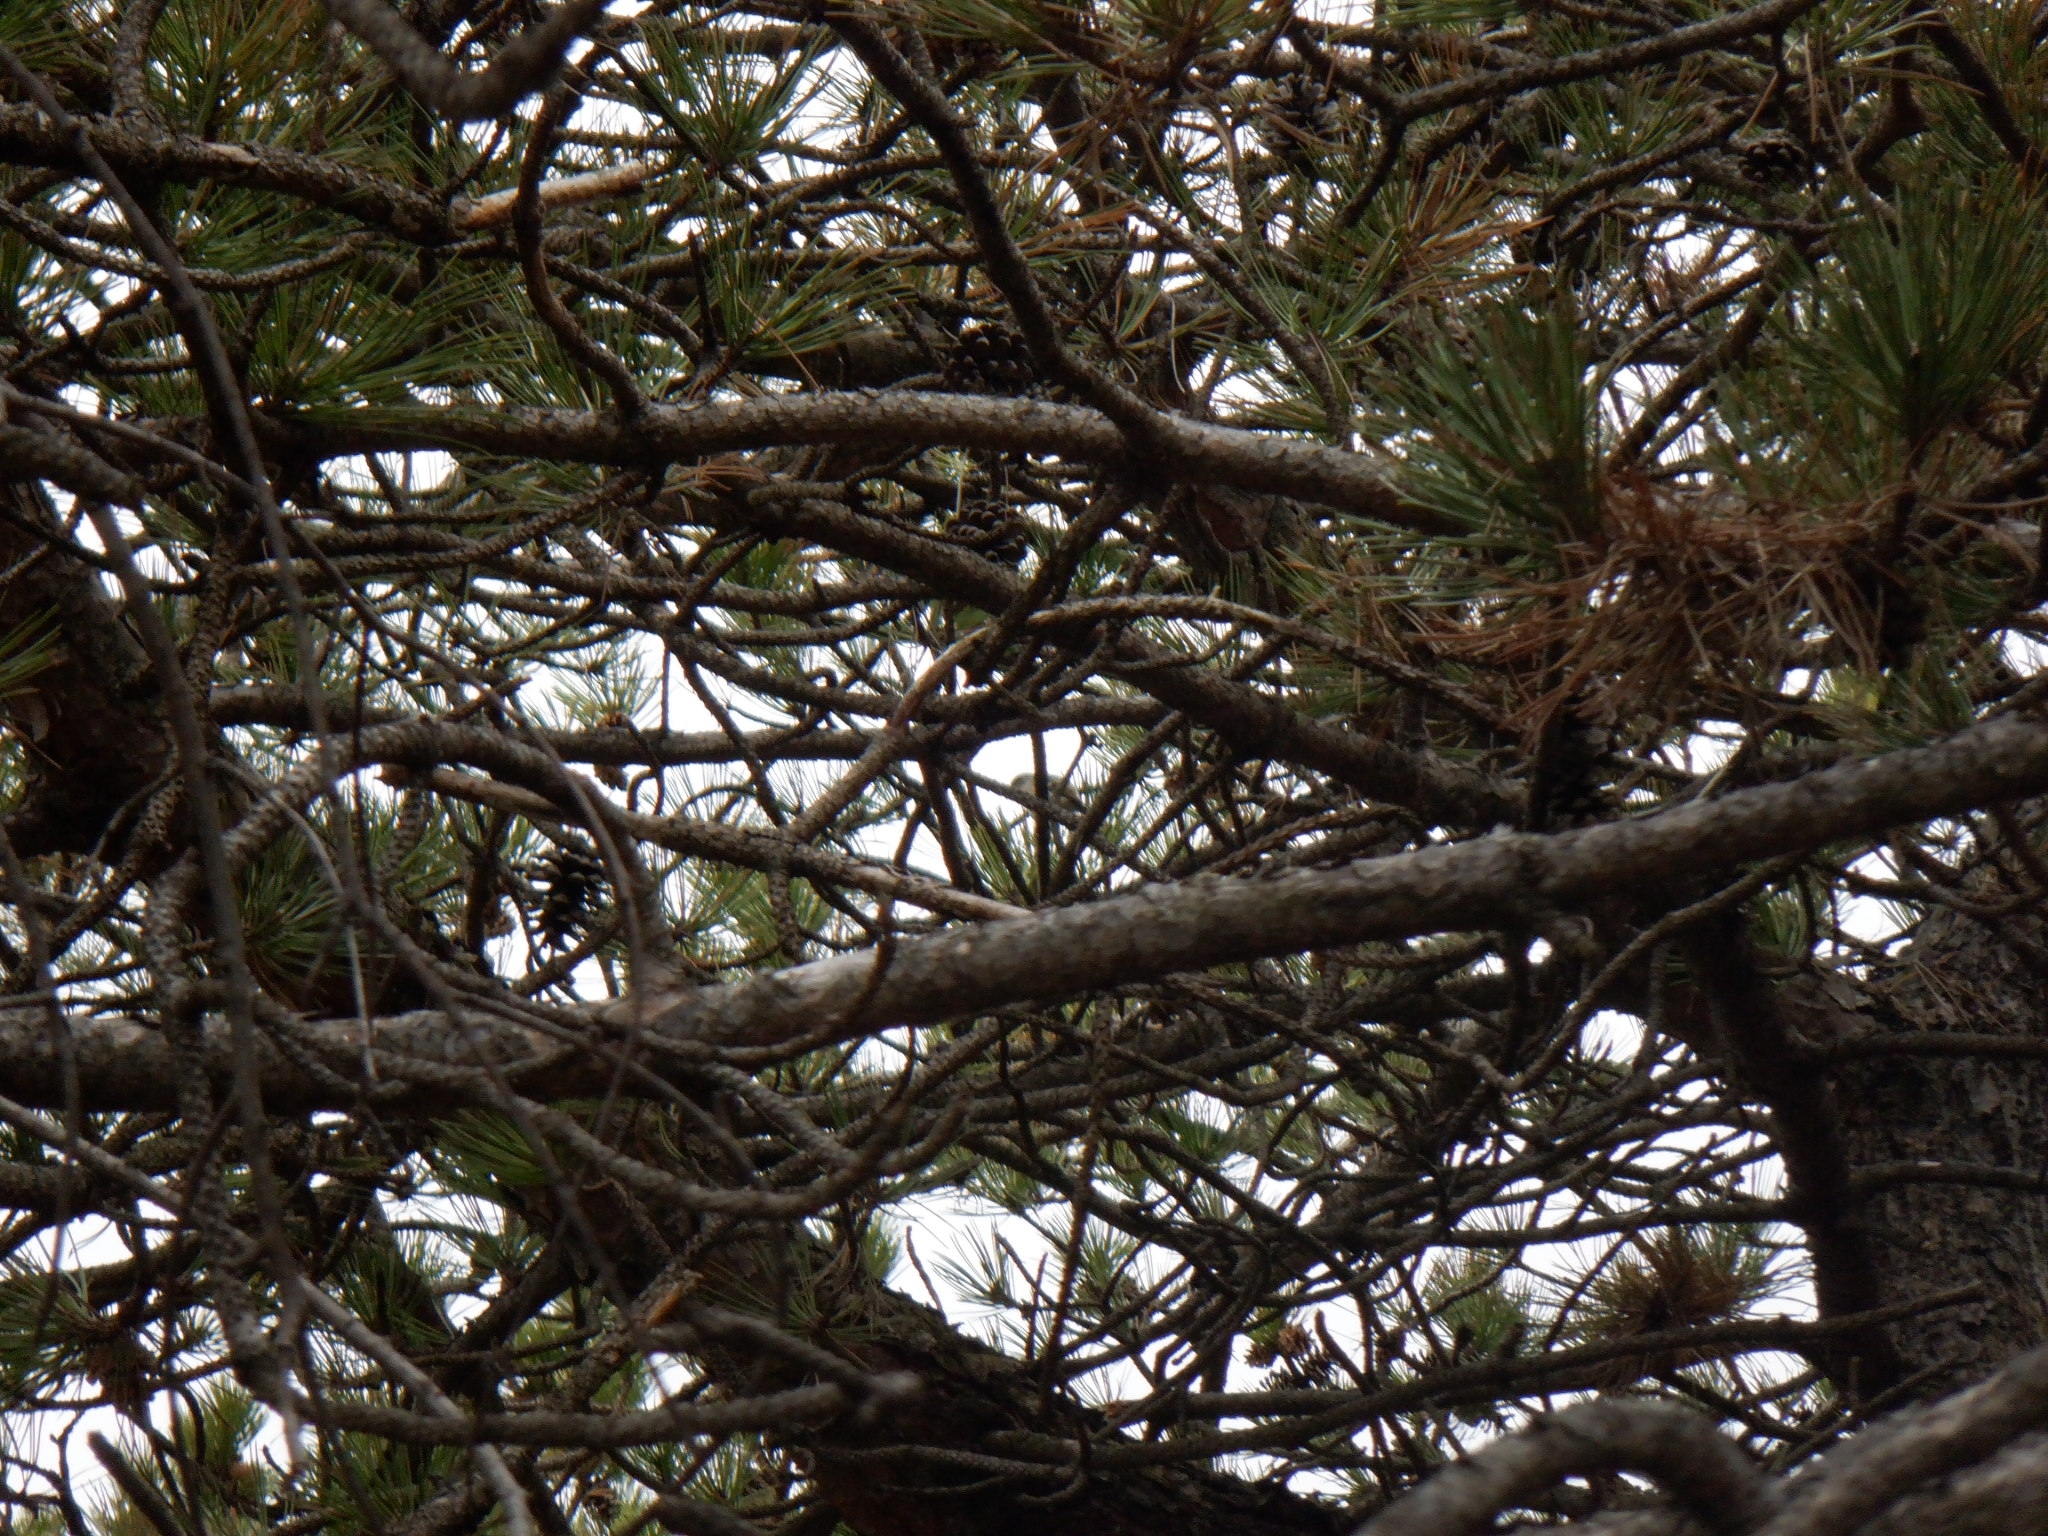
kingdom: Animalia
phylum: Chordata
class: Aves
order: Passeriformes
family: Regulidae
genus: Regulus
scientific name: Regulus satrapa
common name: Golden-crowned kinglet
